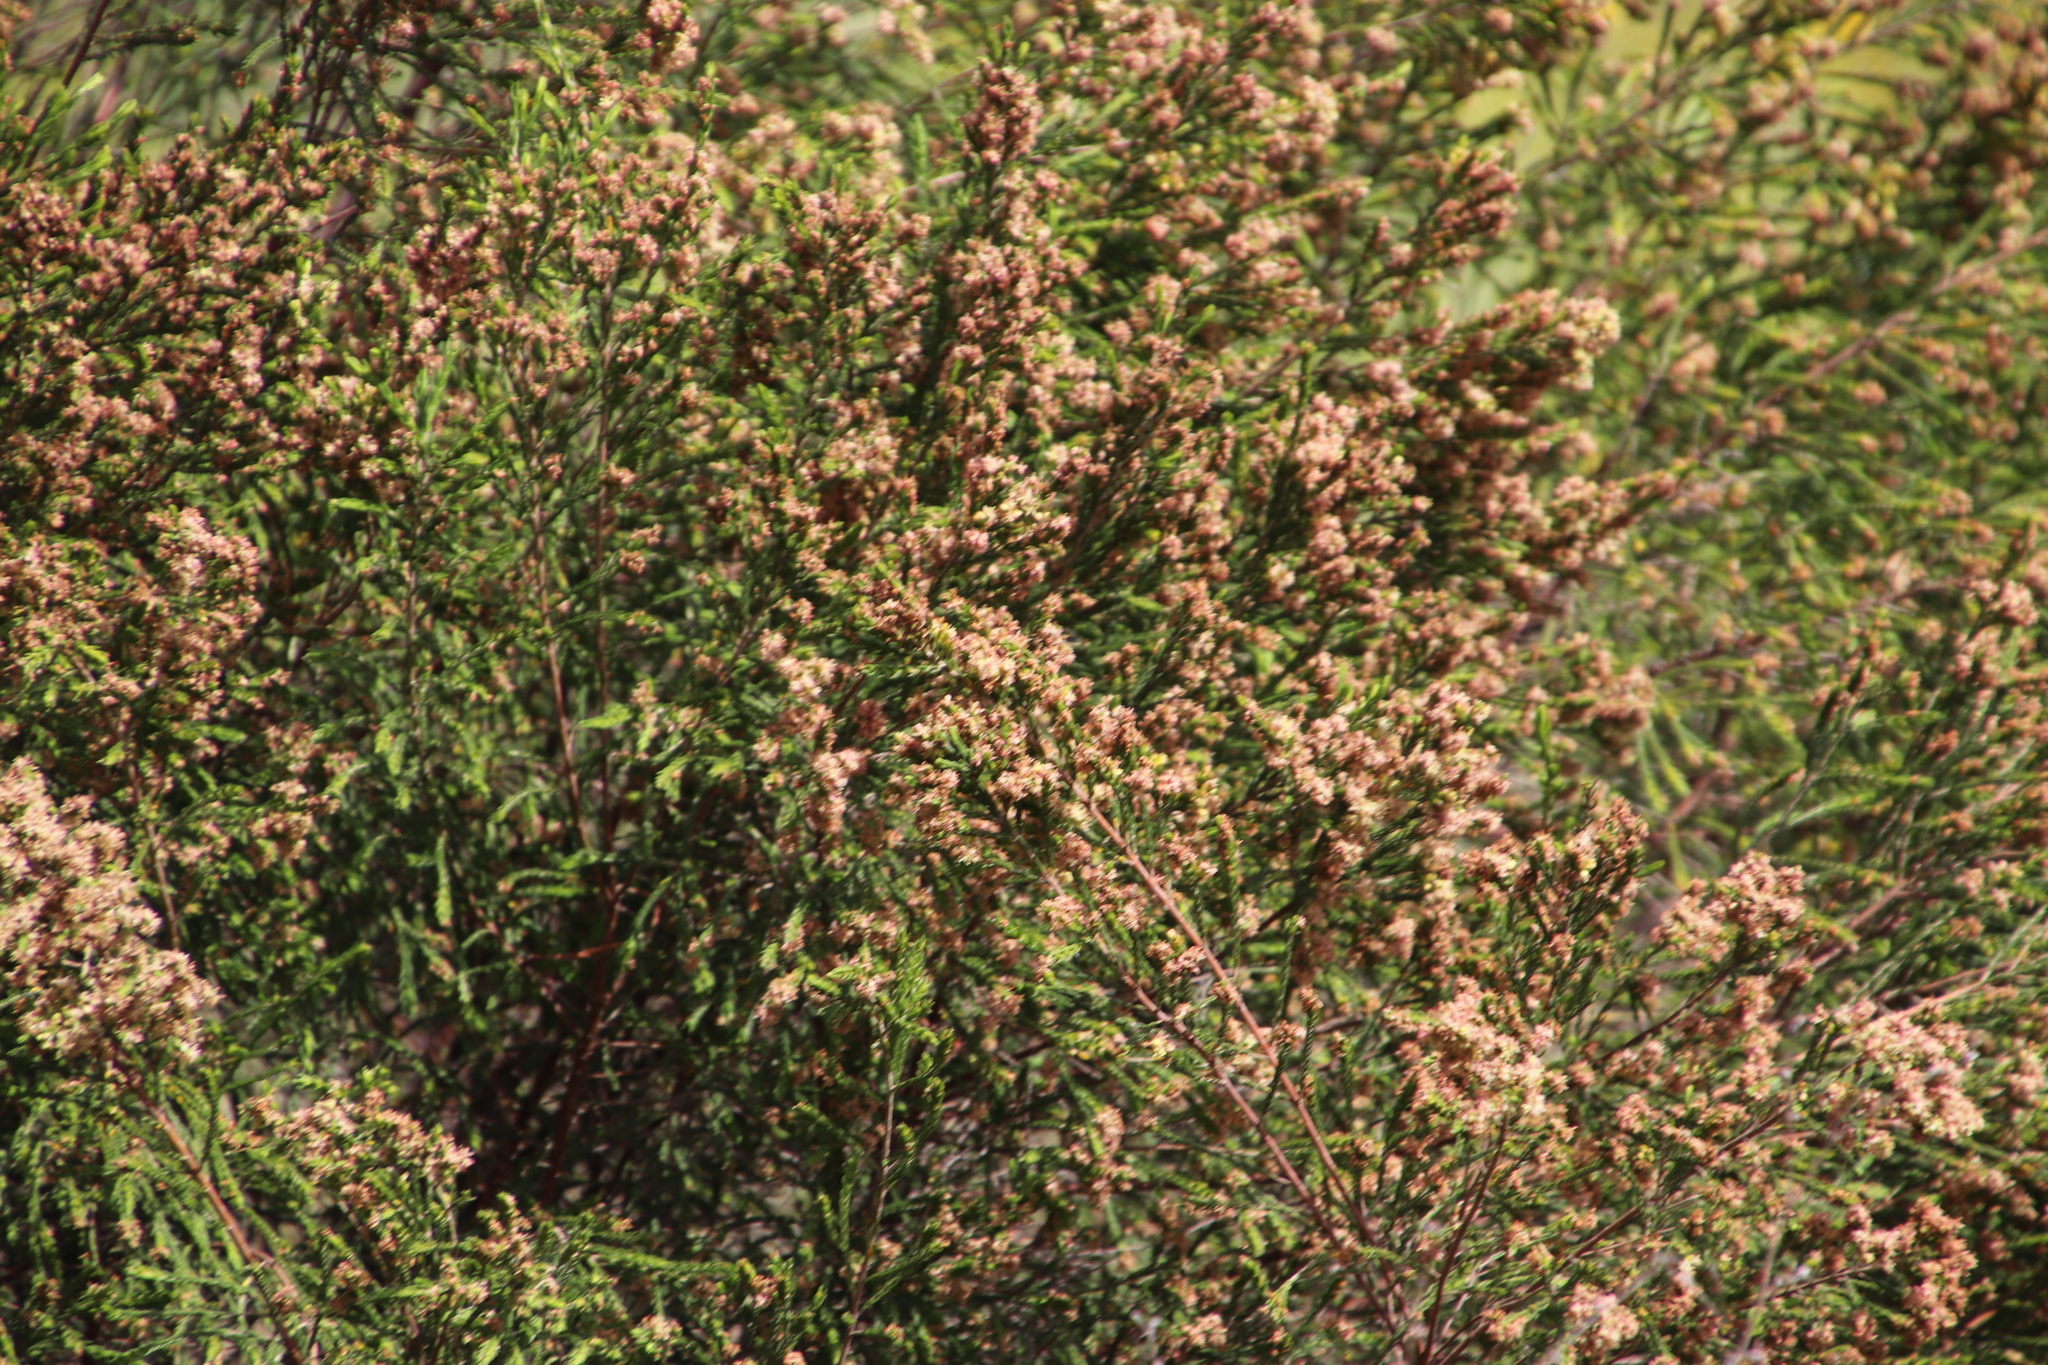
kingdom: Plantae
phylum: Tracheophyta
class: Magnoliopsida
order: Malvales
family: Thymelaeaceae
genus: Passerina
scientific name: Passerina corymbosa
